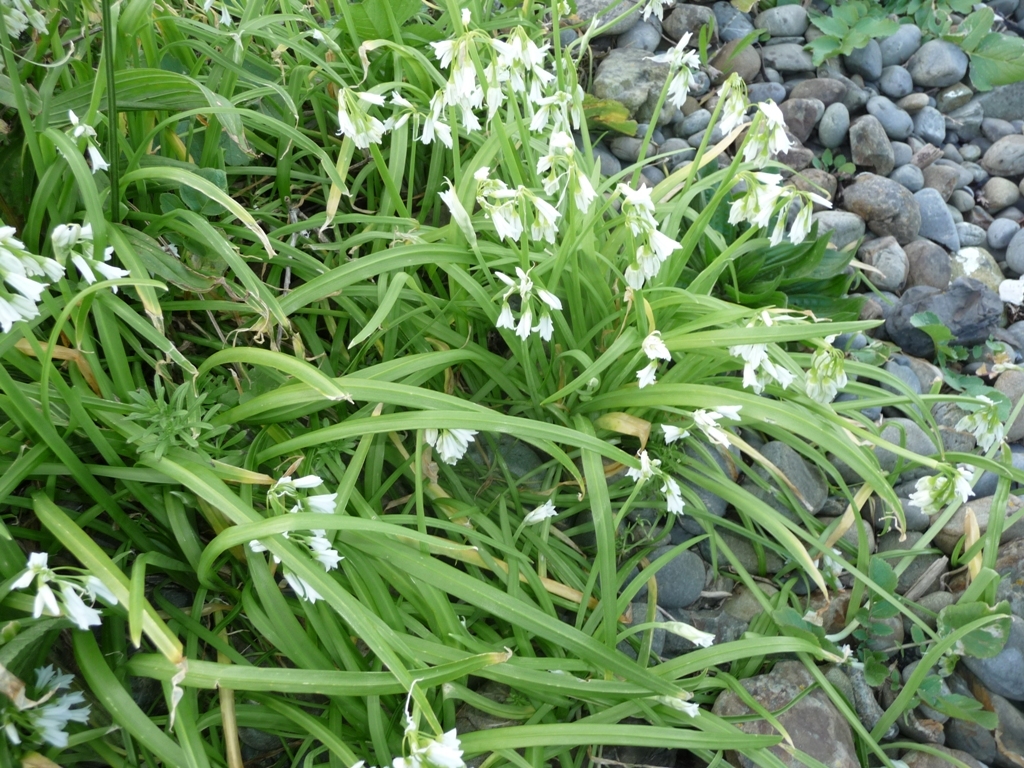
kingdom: Plantae
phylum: Tracheophyta
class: Liliopsida
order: Asparagales
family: Amaryllidaceae
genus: Allium
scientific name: Allium triquetrum
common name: Three-cornered garlic
